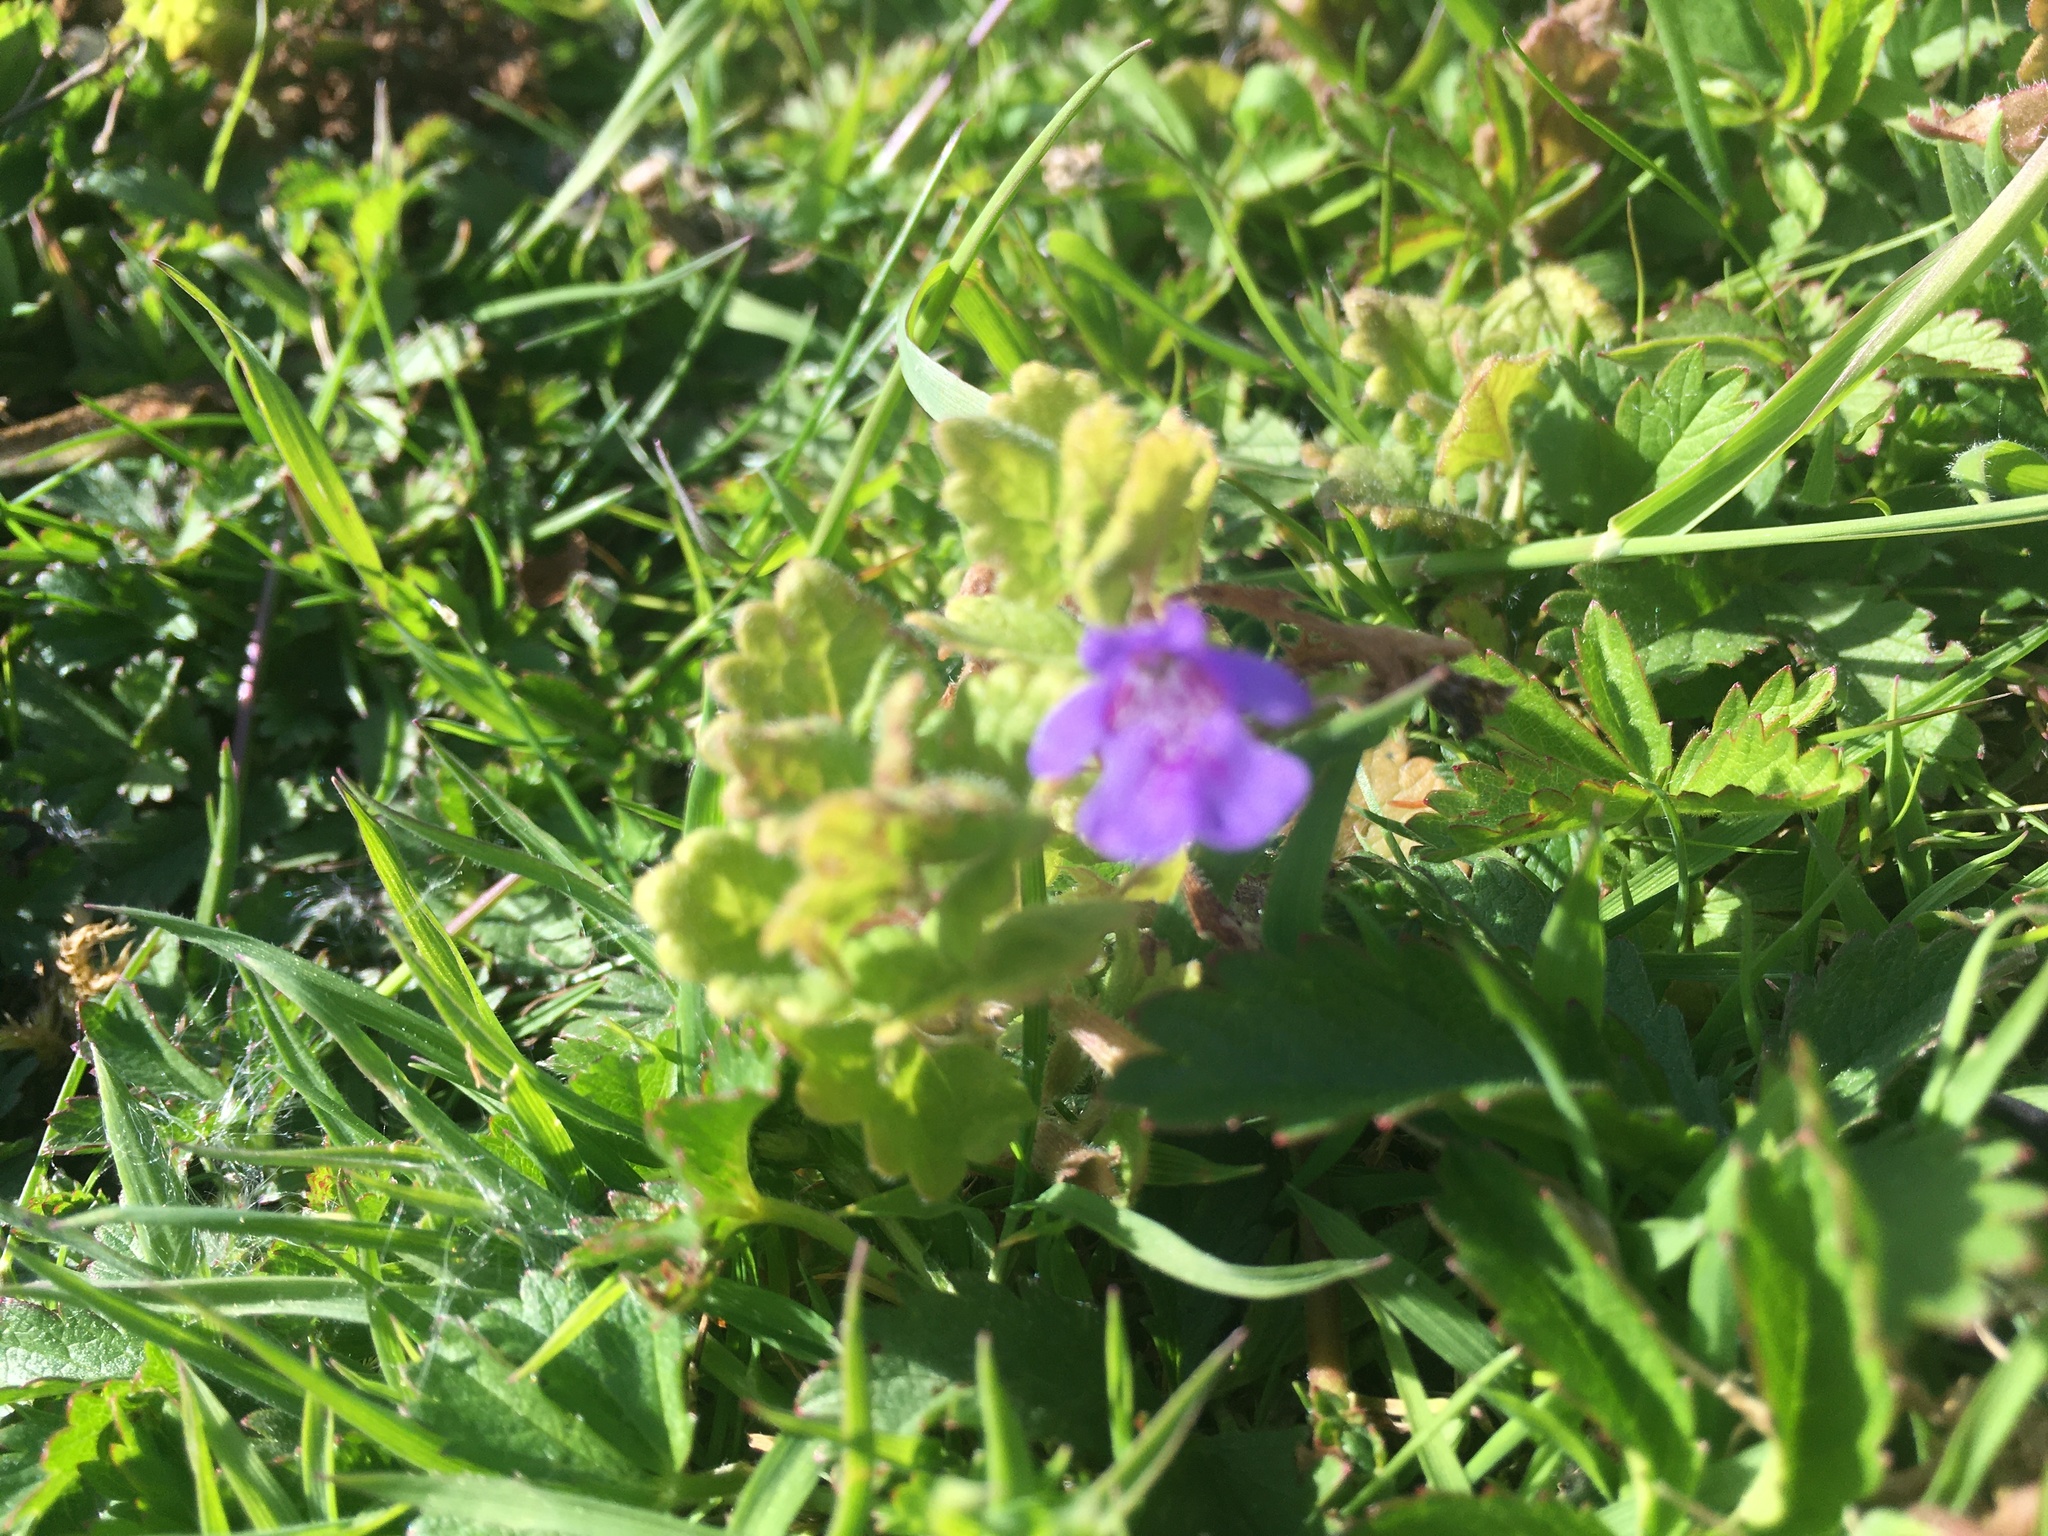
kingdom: Plantae
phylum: Tracheophyta
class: Magnoliopsida
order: Lamiales
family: Lamiaceae
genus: Glechoma
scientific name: Glechoma hederacea
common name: Ground ivy
